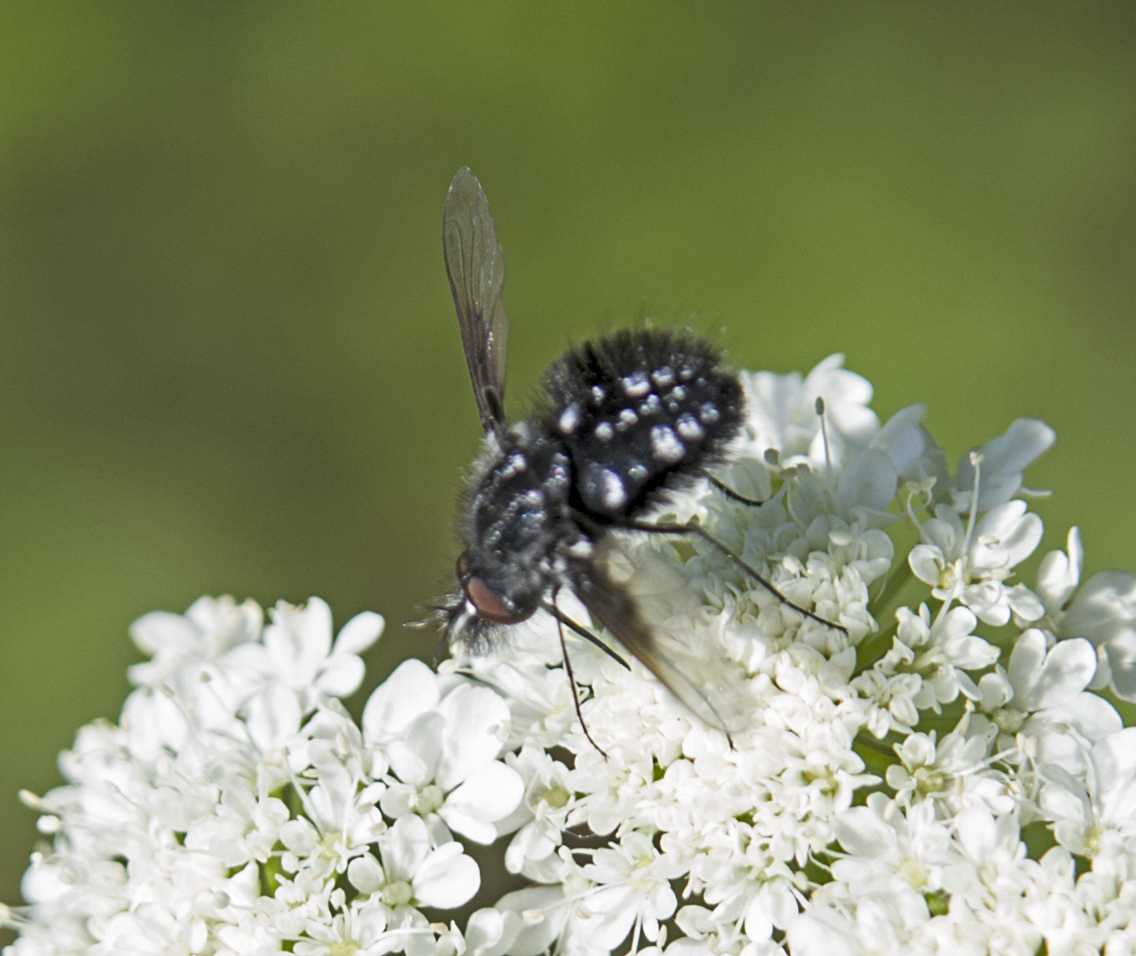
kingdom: Animalia
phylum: Arthropoda
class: Insecta
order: Diptera
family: Bombyliidae
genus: Bombylella
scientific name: Bombylella atra
